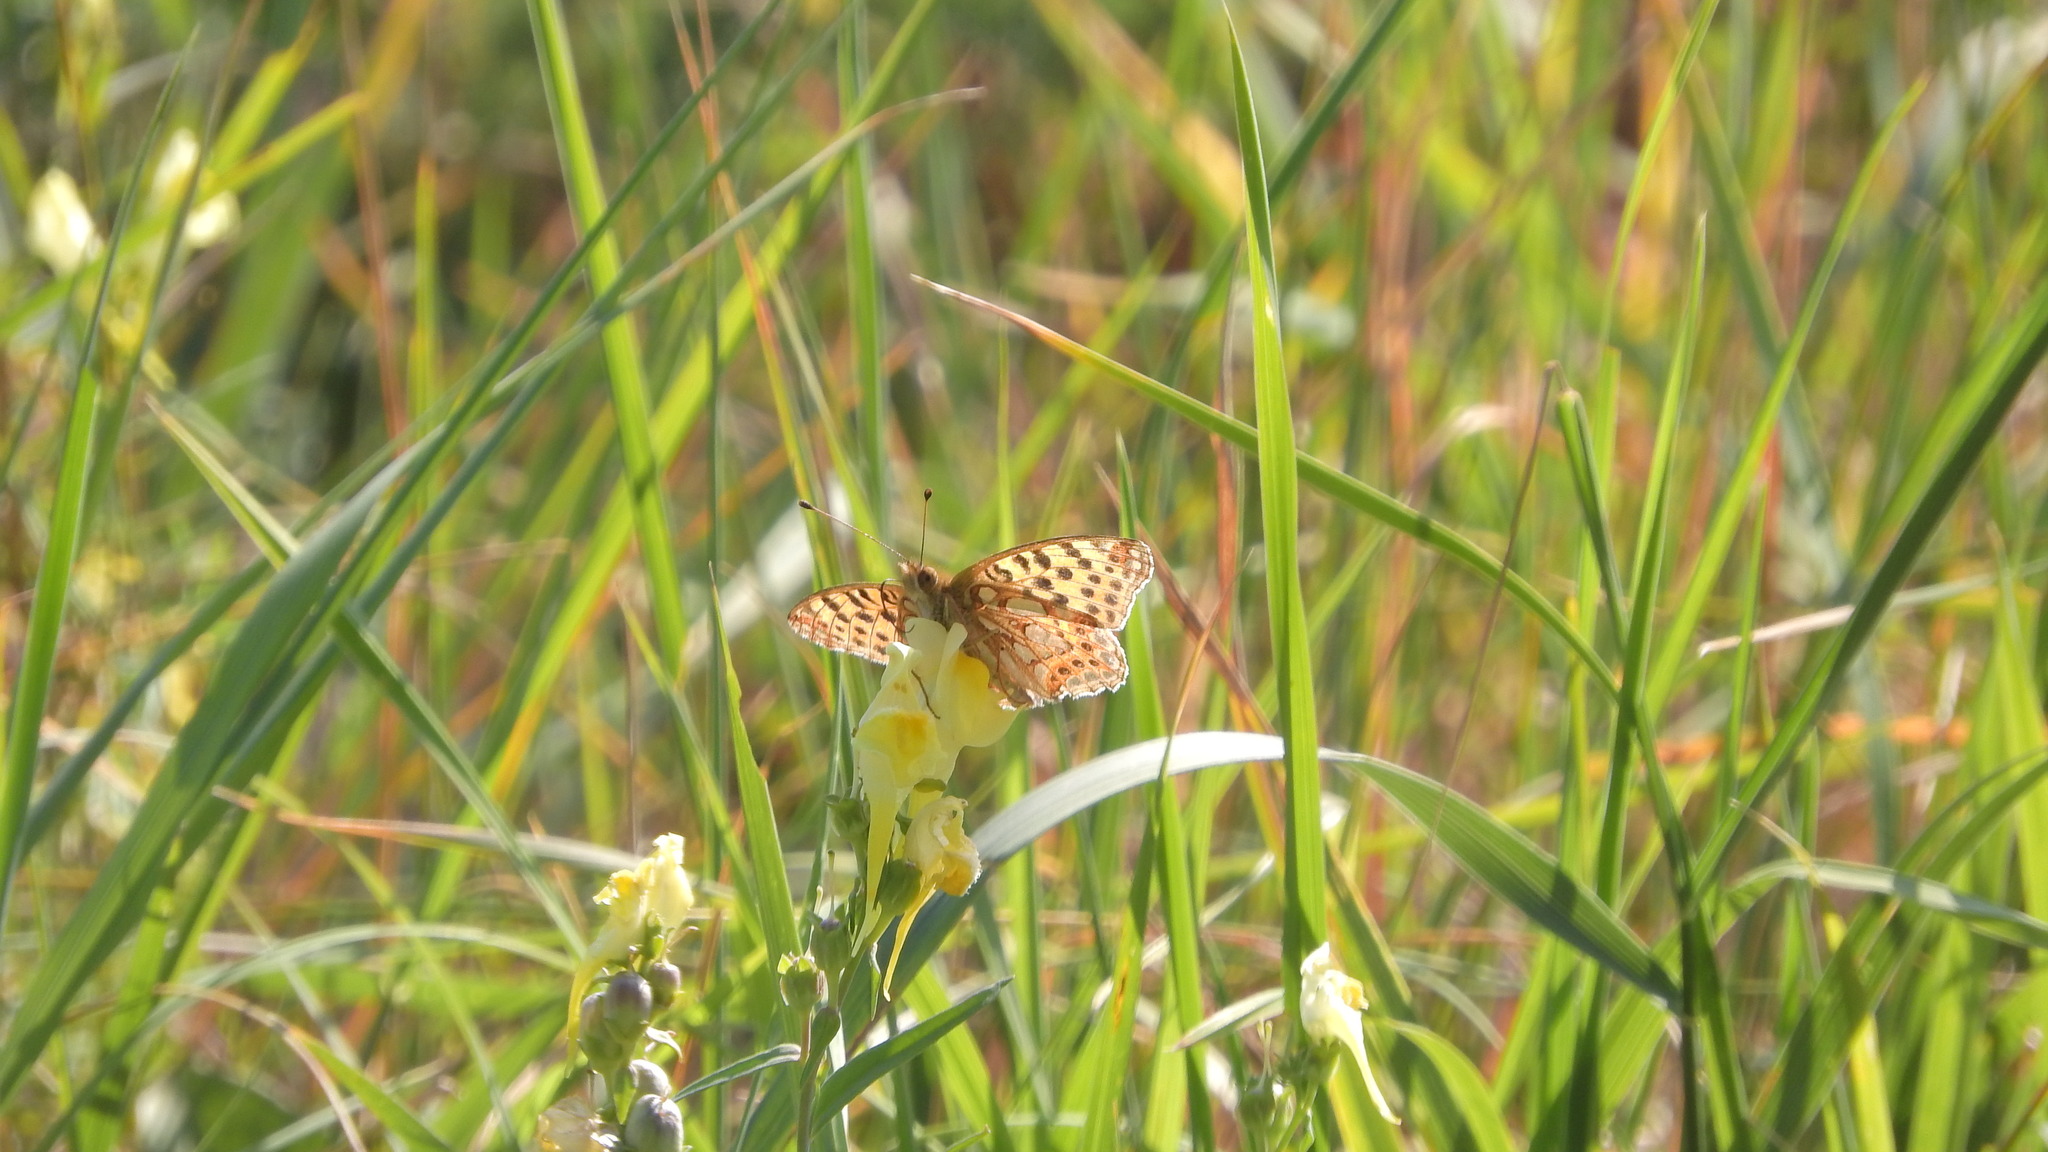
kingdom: Animalia
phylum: Arthropoda
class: Insecta
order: Lepidoptera
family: Nymphalidae
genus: Issoria
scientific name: Issoria lathonia
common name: Queen of spain fritillary
